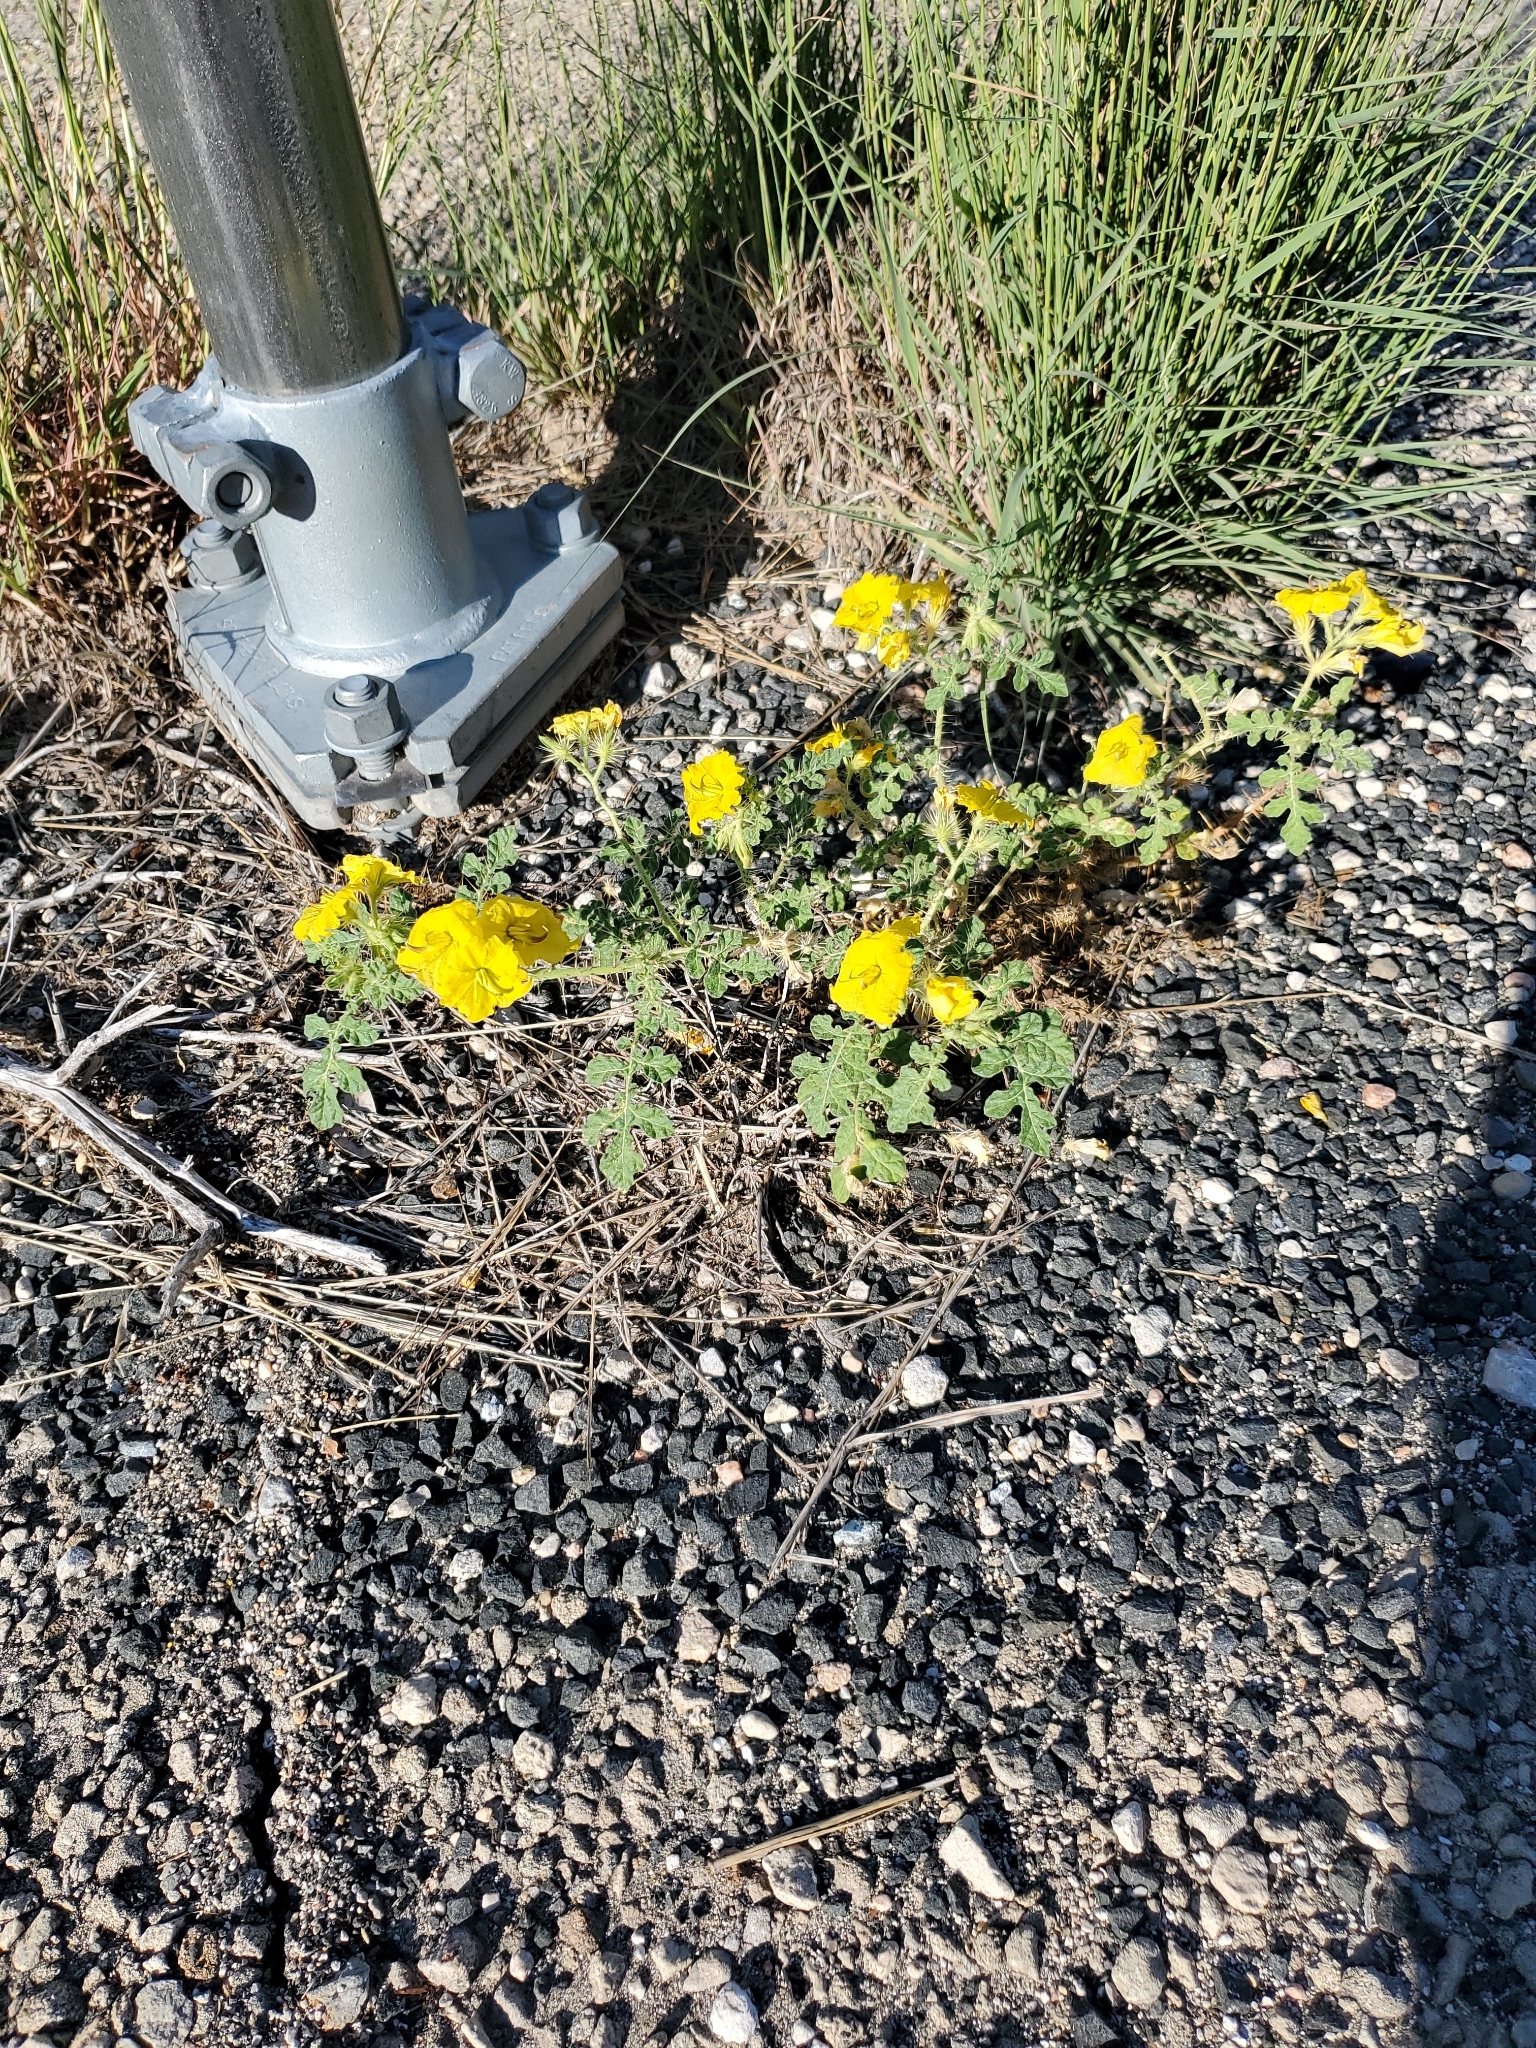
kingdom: Plantae
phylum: Tracheophyta
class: Magnoliopsida
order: Solanales
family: Solanaceae
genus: Solanum
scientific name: Solanum angustifolium
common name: Buffalobur nightshade
